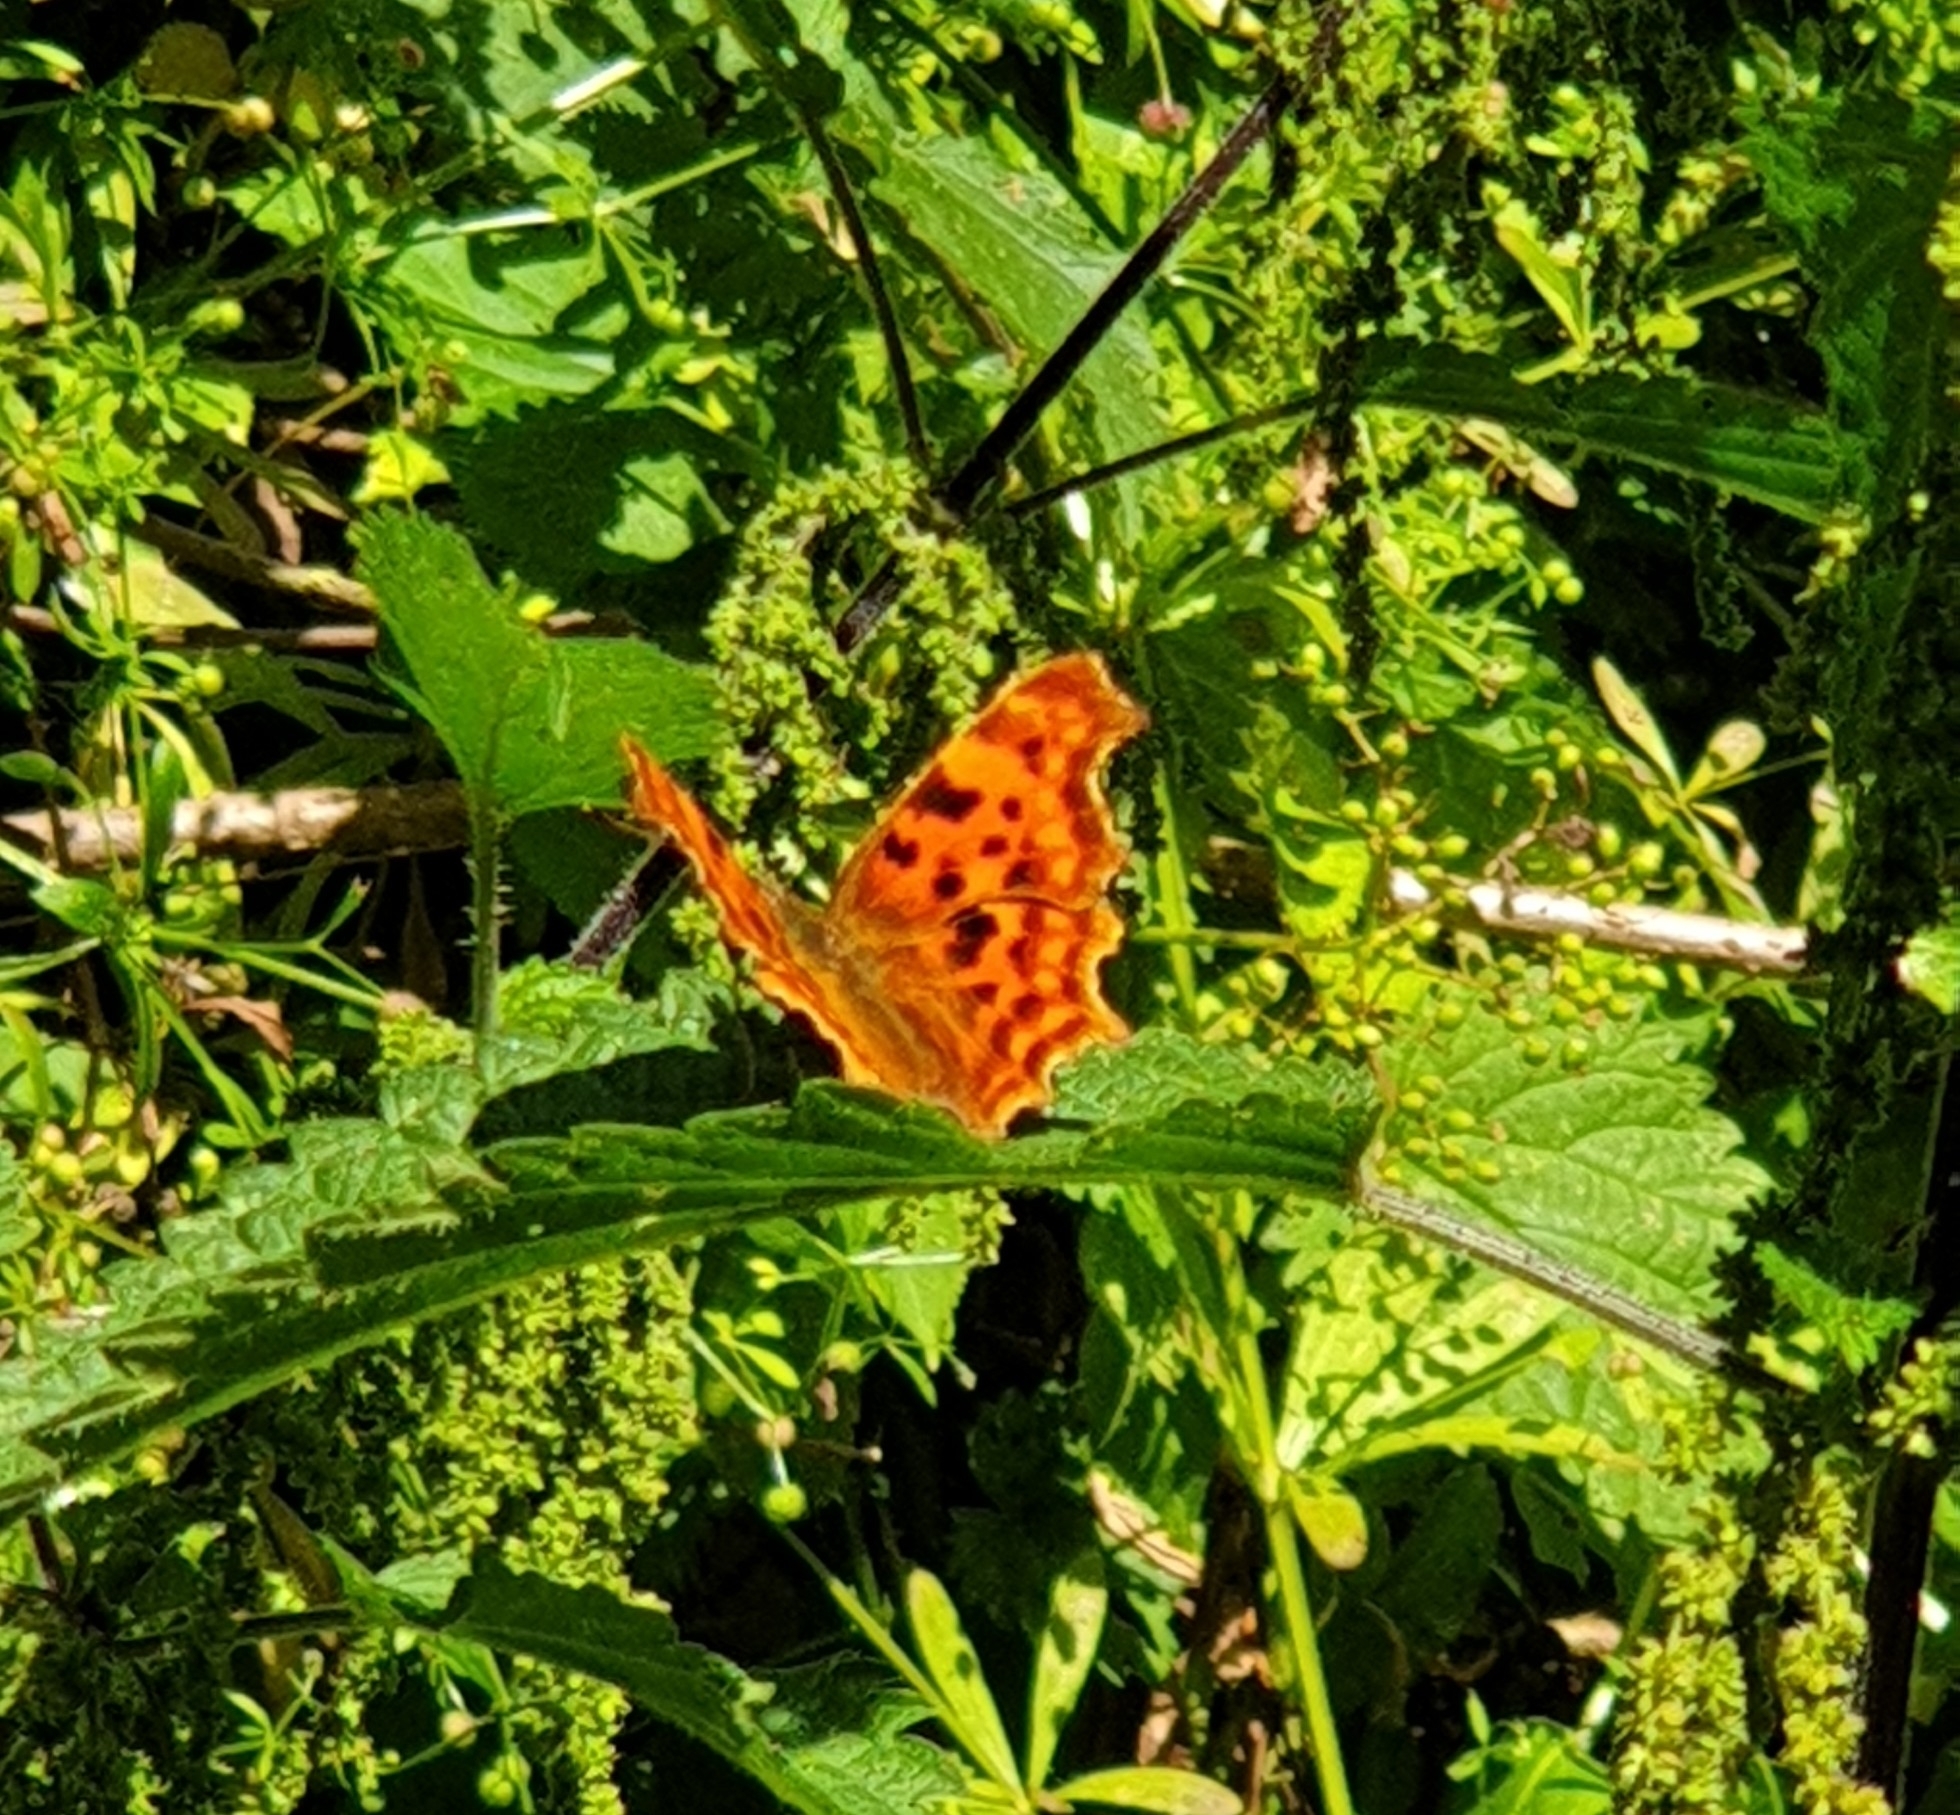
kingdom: Animalia
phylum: Arthropoda
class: Insecta
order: Lepidoptera
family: Nymphalidae
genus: Polygonia
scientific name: Polygonia c-album
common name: Comma
